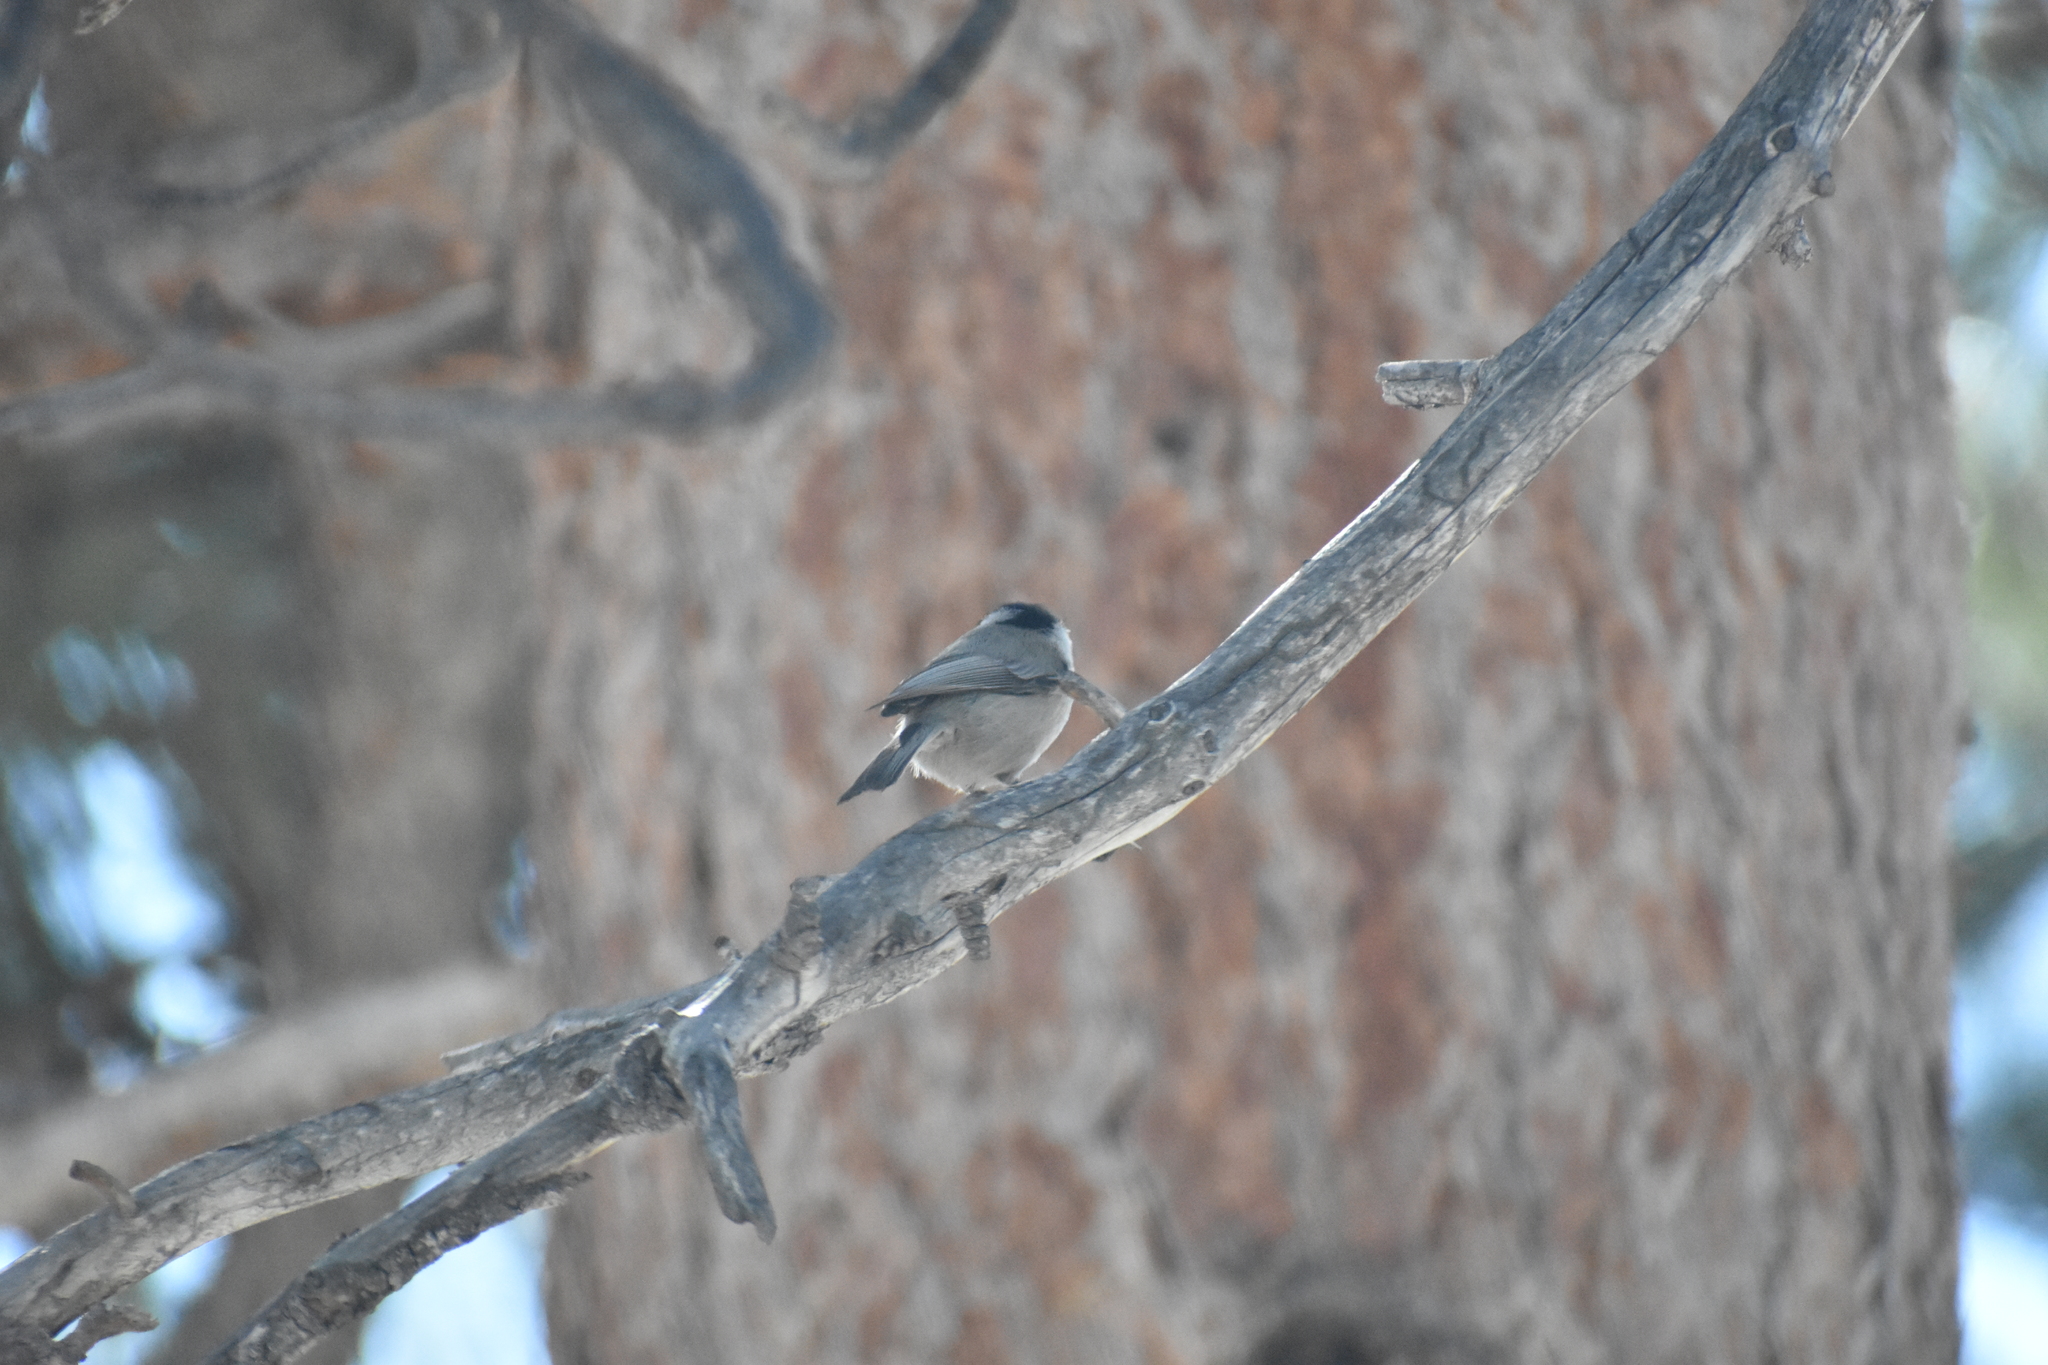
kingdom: Animalia
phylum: Chordata
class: Aves
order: Passeriformes
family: Paridae
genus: Poecile
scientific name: Poecile gambeli
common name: Mountain chickadee
